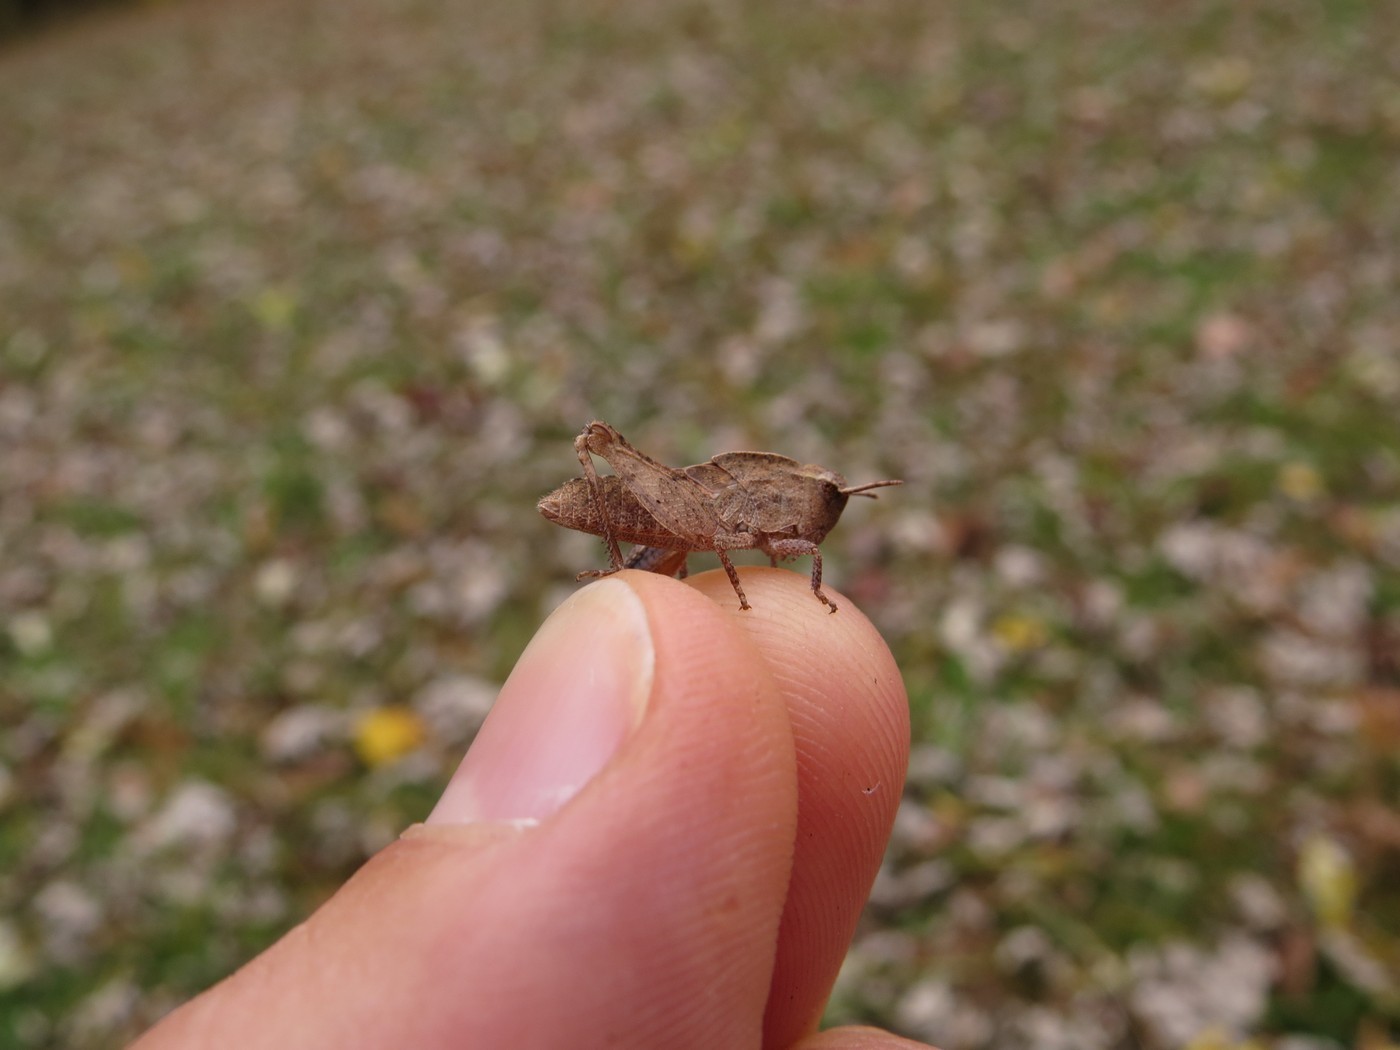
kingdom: Animalia
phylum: Arthropoda
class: Insecta
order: Orthoptera
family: Acrididae
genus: Chortophaga
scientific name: Chortophaga viridifasciata
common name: Green-striped grasshopper
